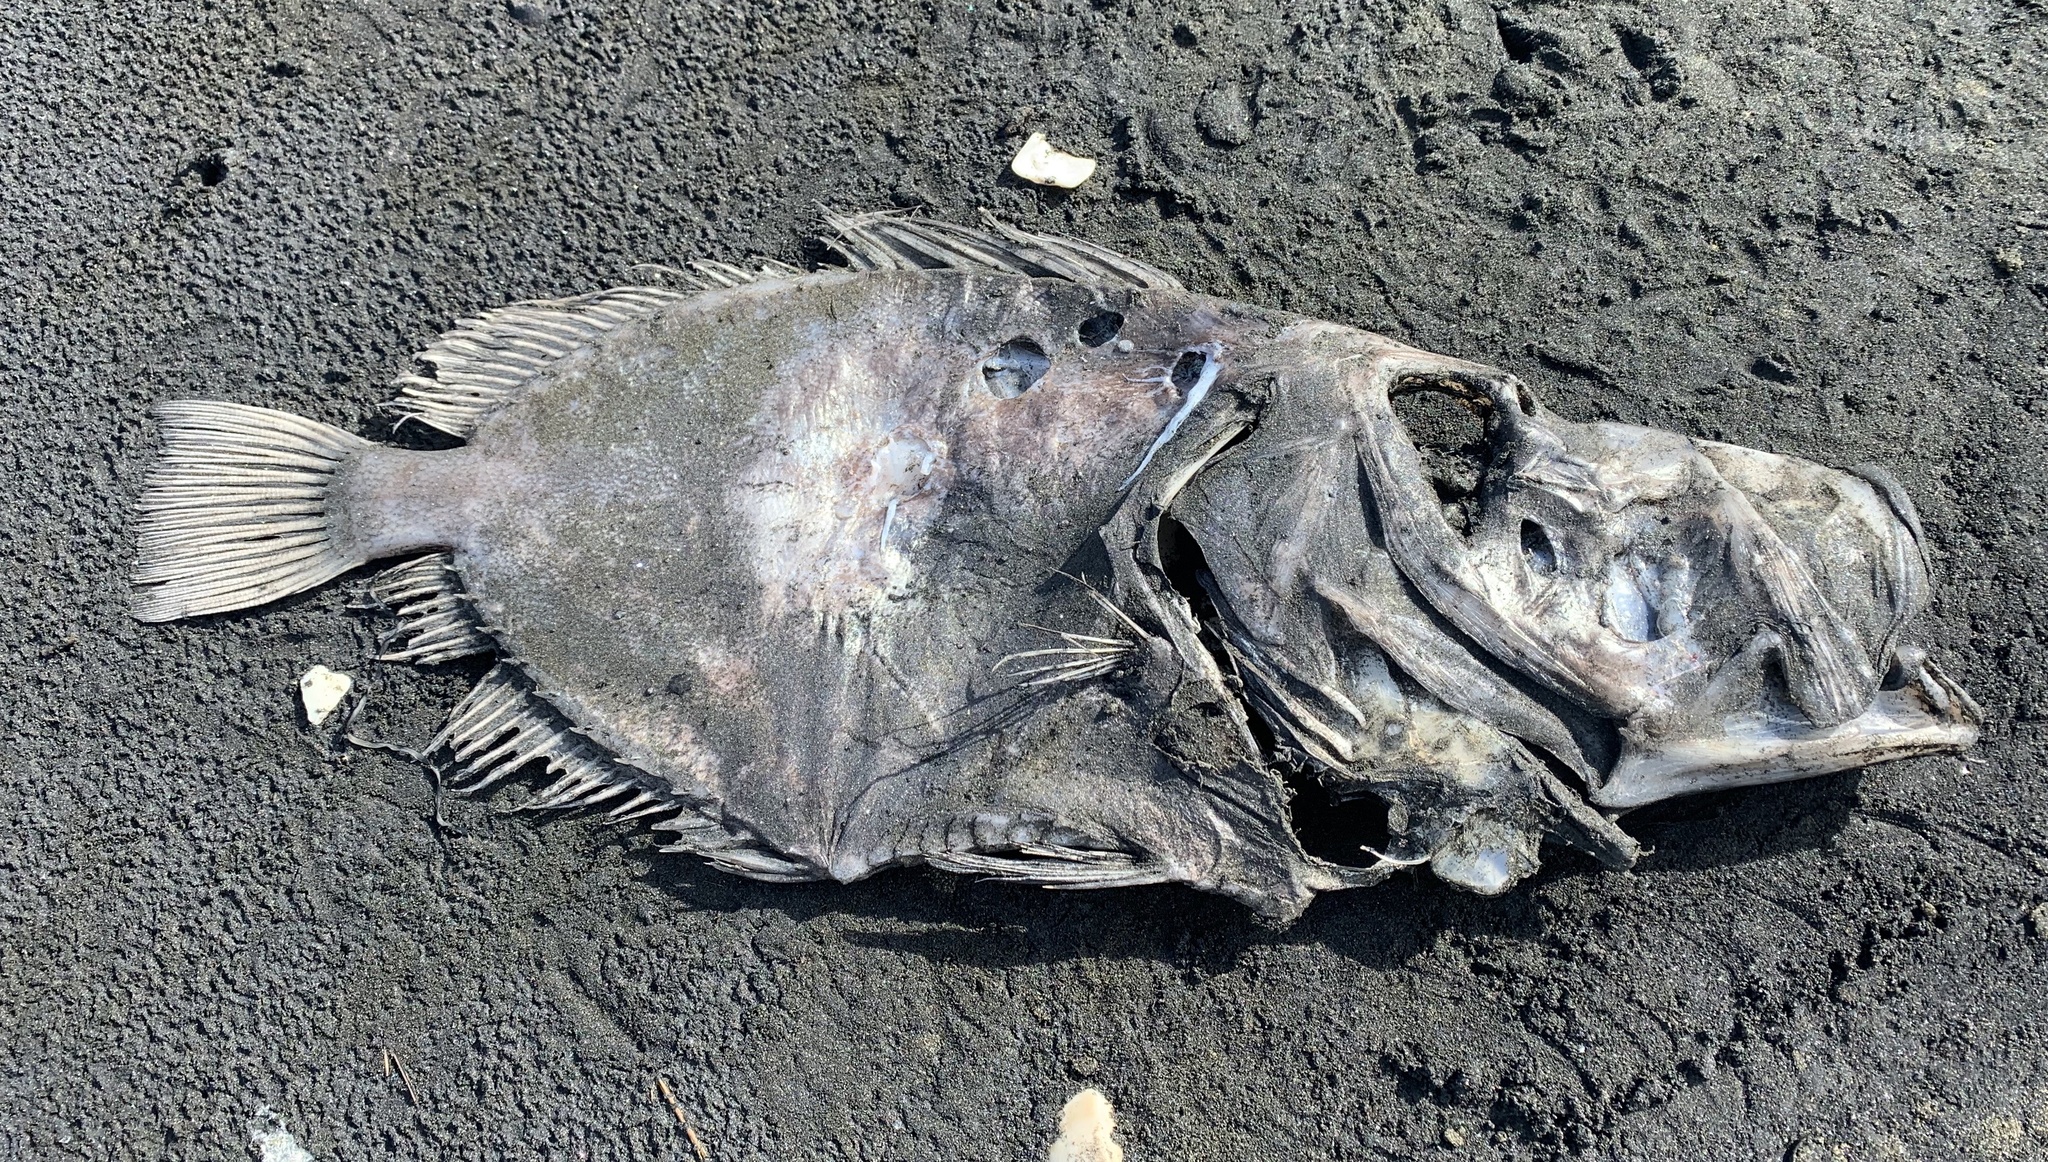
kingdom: Animalia
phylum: Chordata
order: Zeiformes
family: Zeidae
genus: Zeus
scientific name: Zeus faber
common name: John dory
